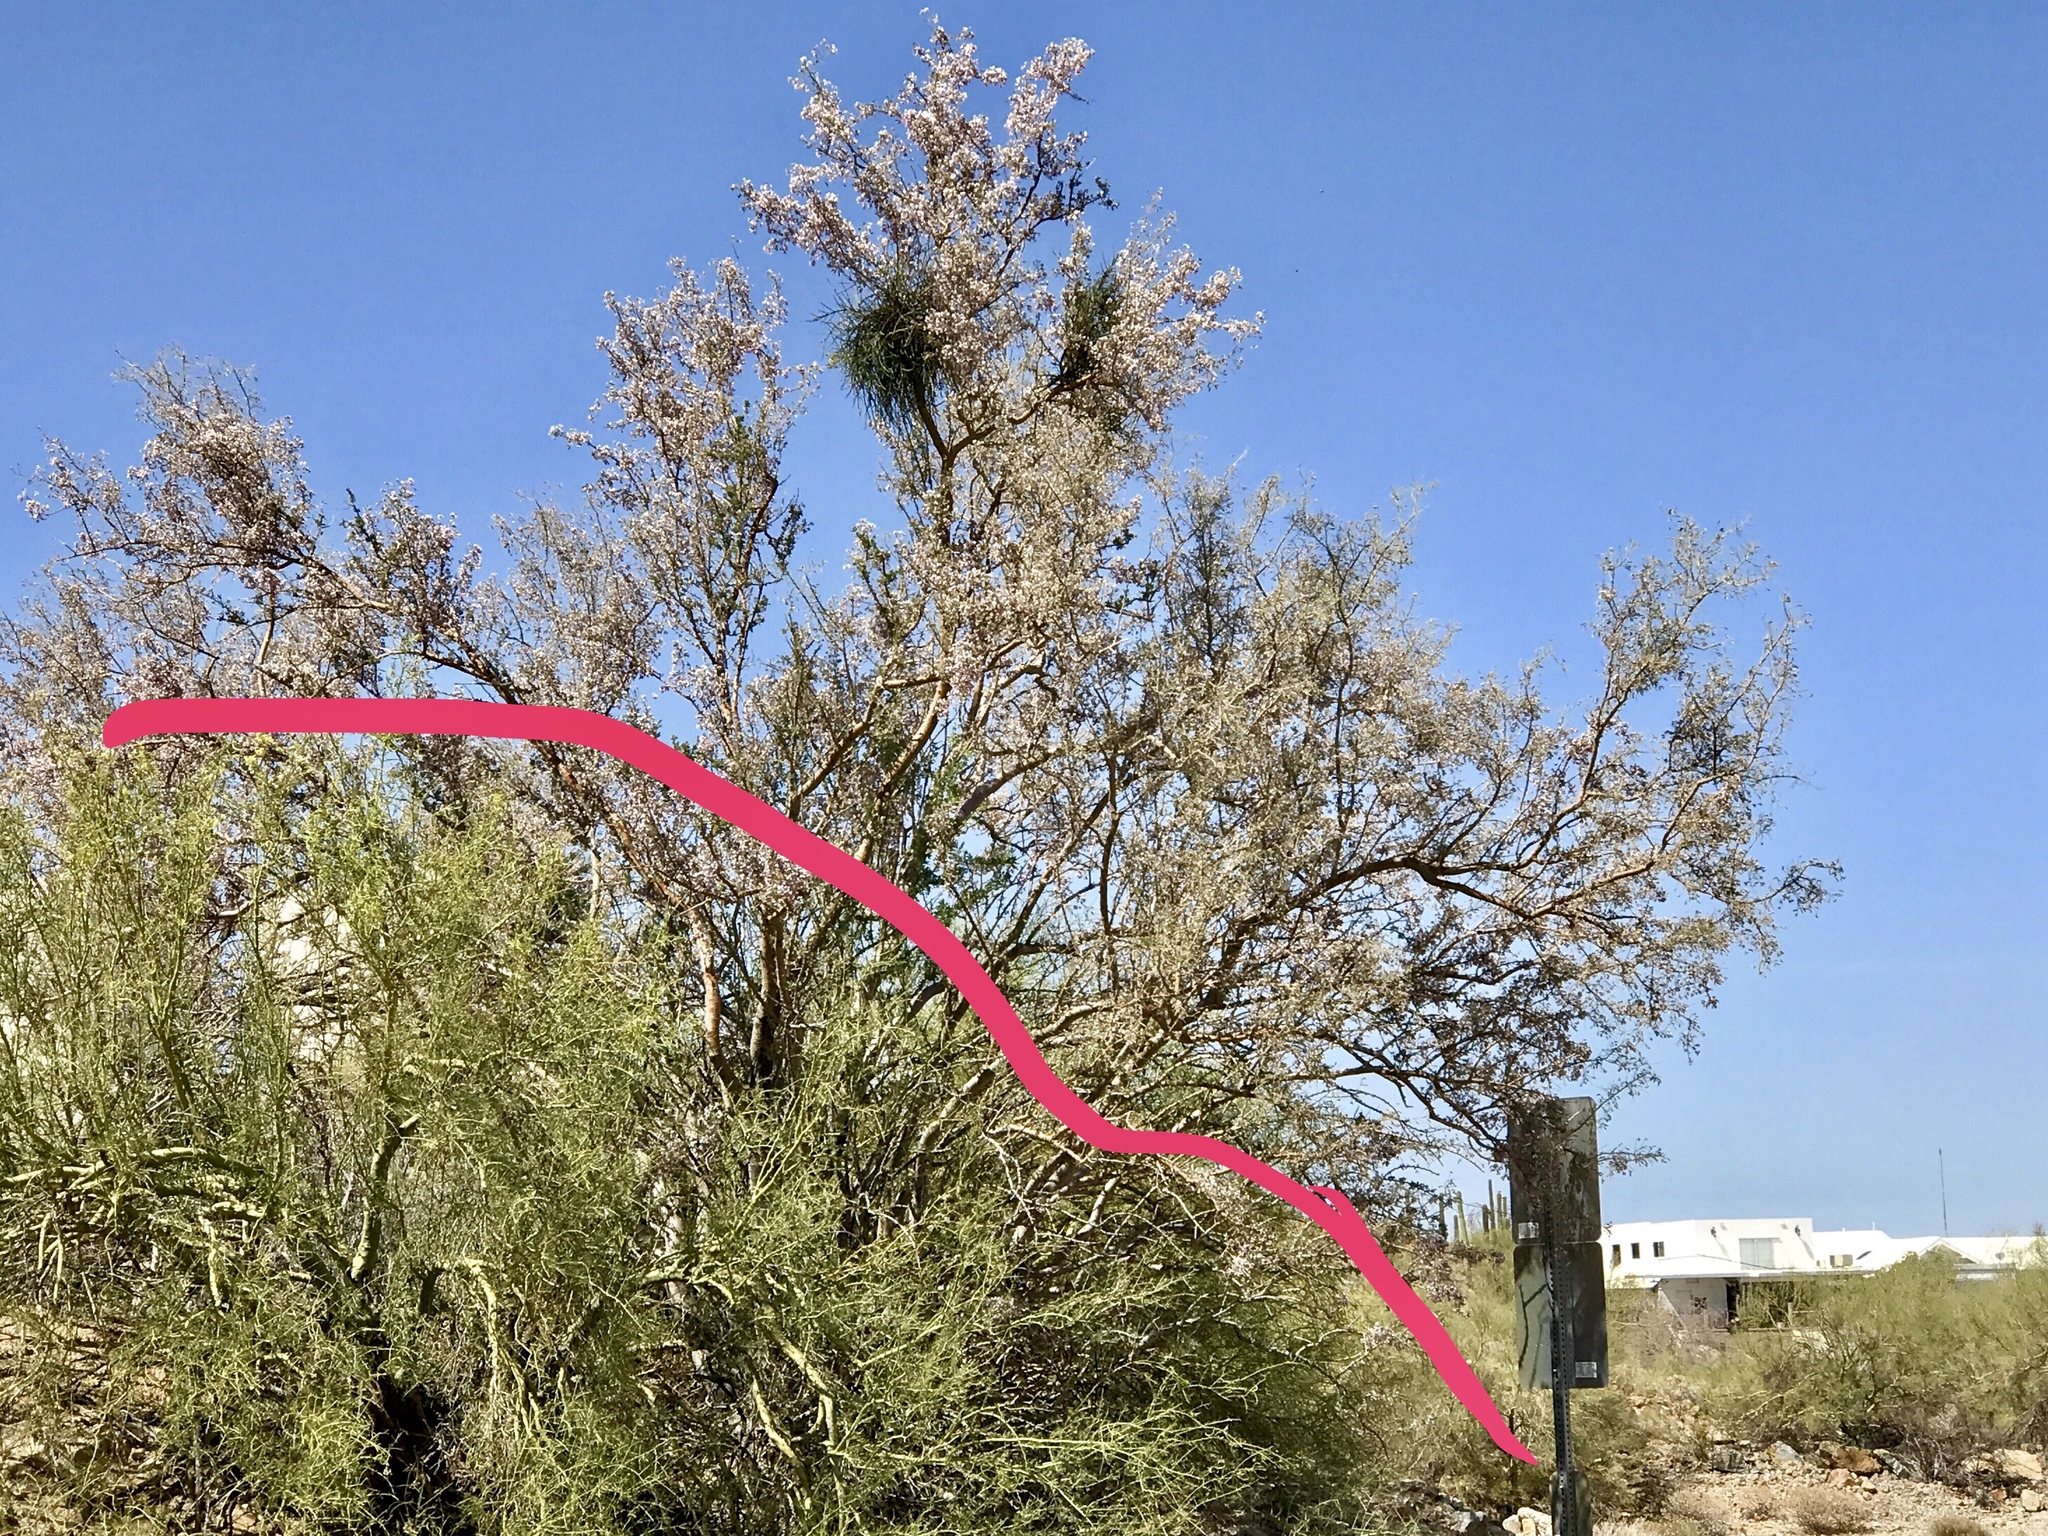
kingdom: Plantae
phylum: Tracheophyta
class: Magnoliopsida
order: Fabales
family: Fabaceae
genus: Olneya
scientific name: Olneya tesota
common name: Desert ironwood
